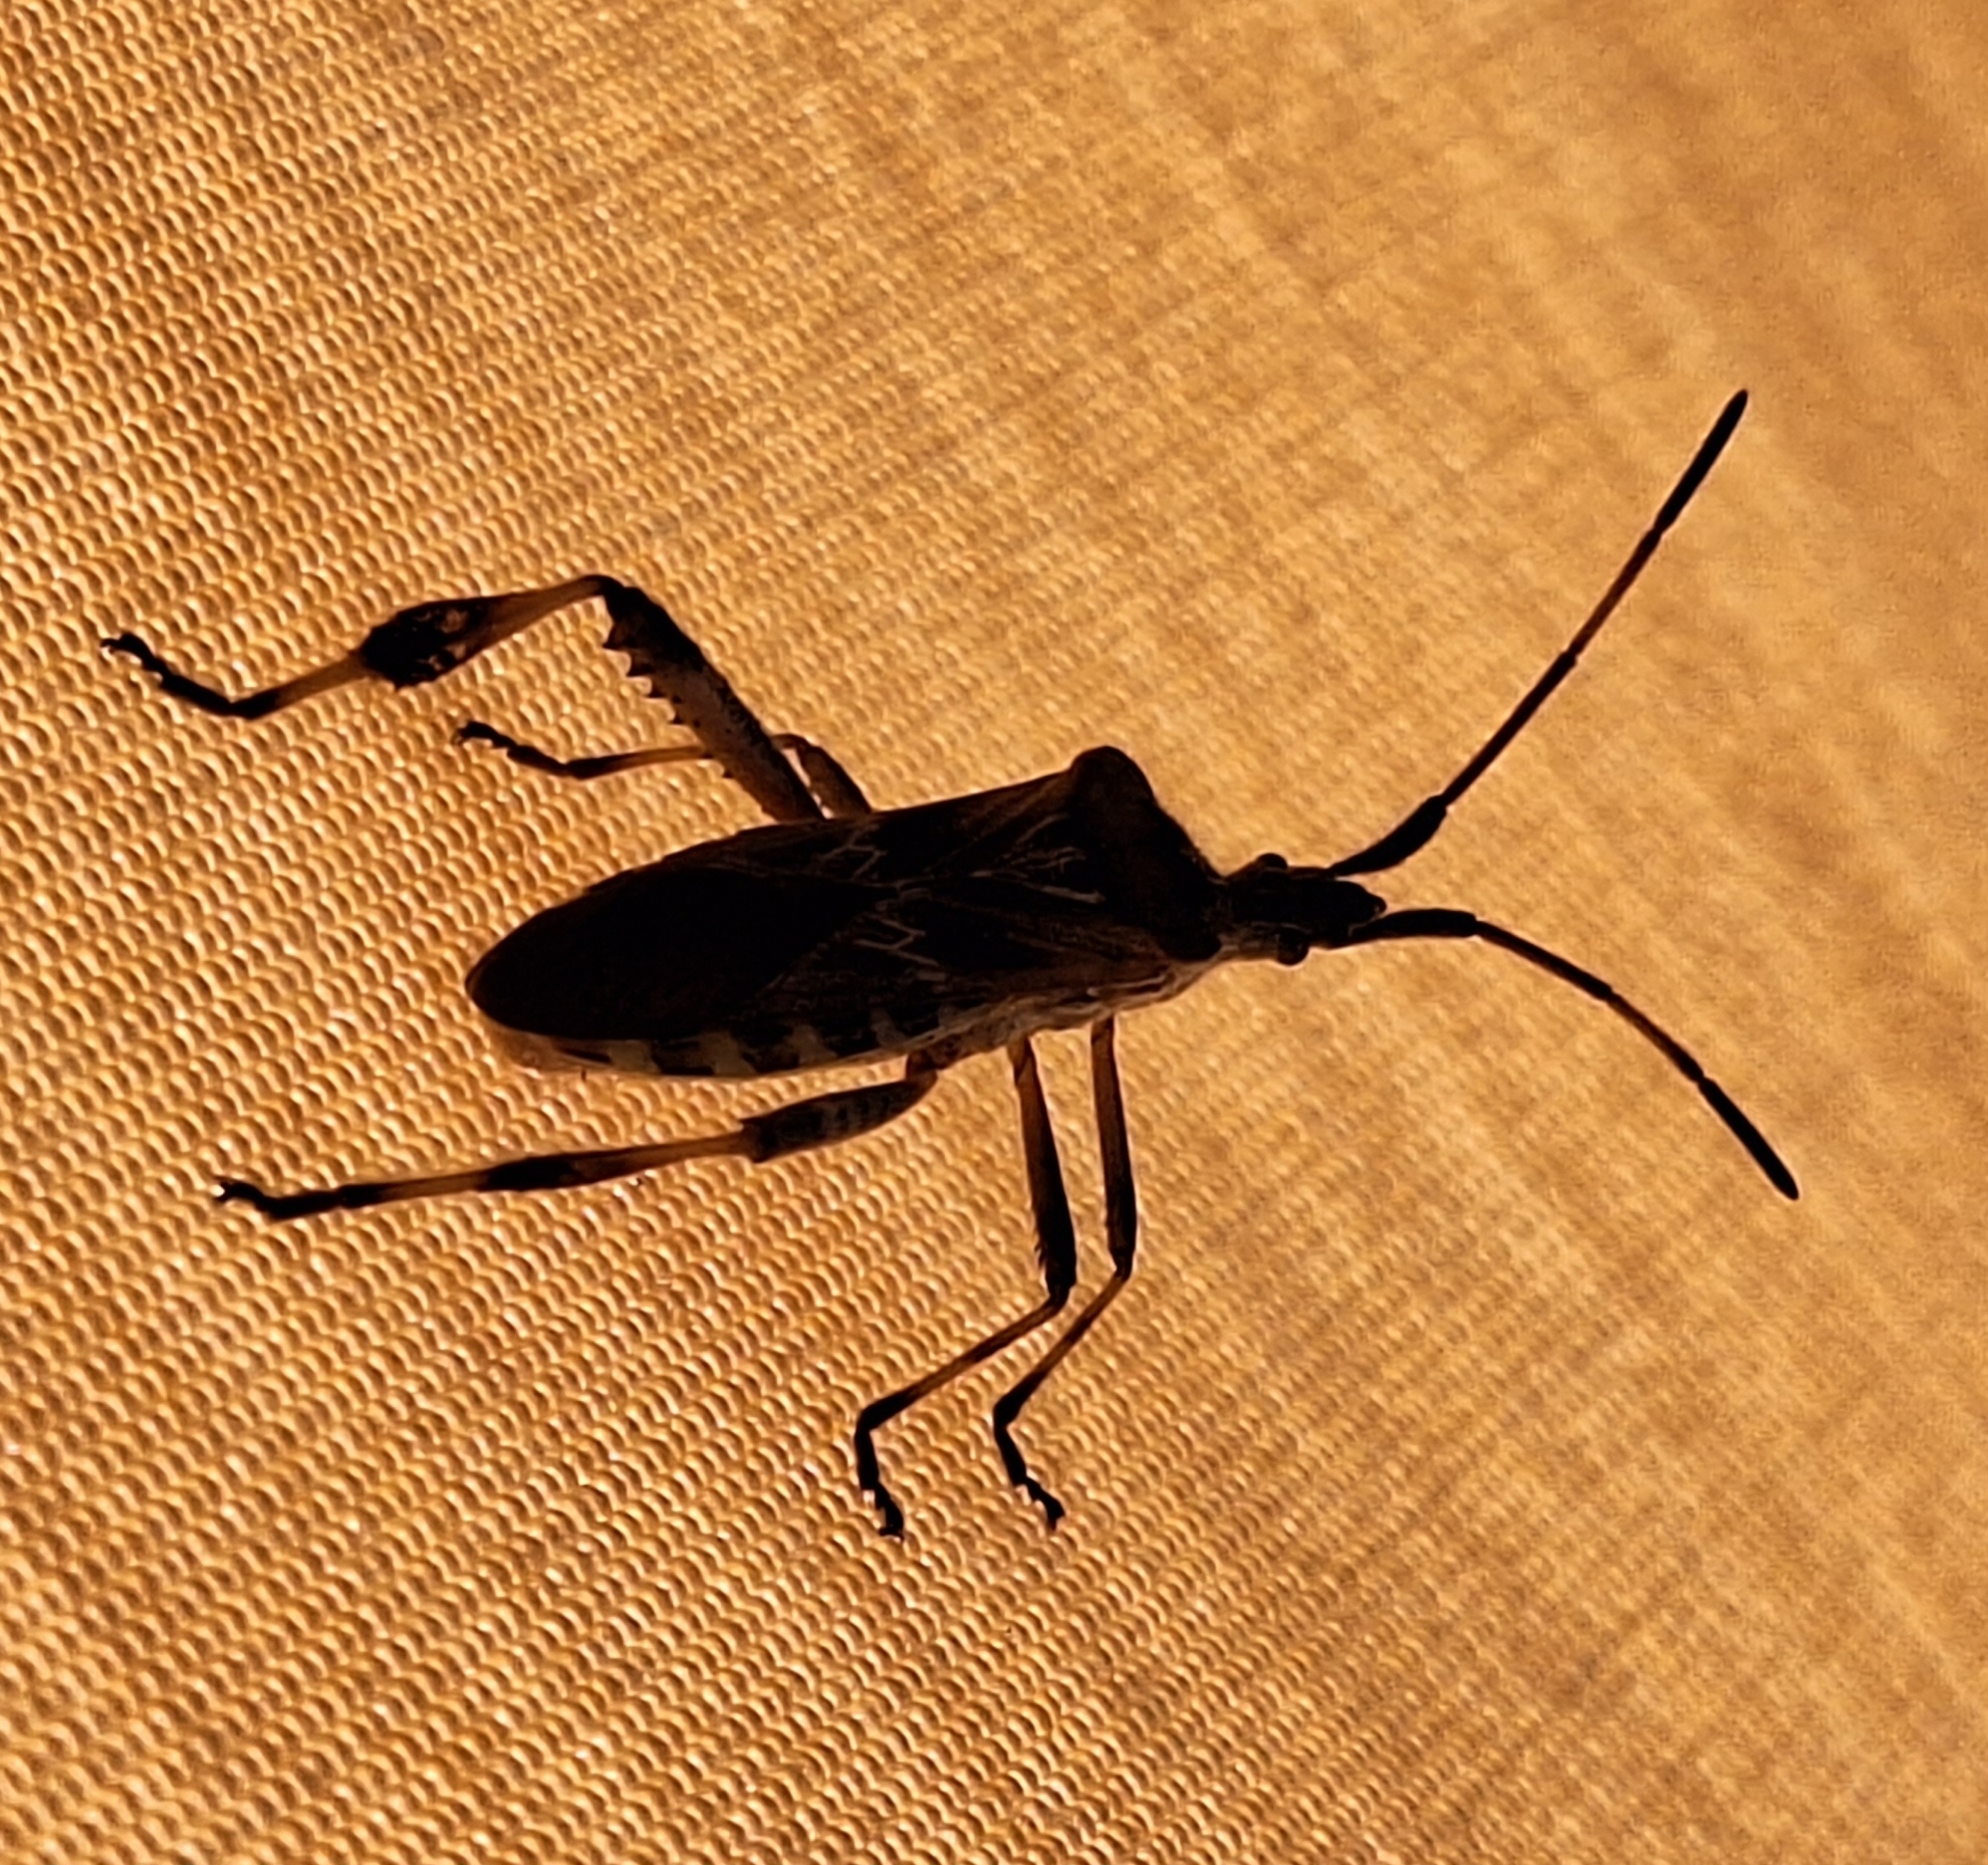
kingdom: Animalia
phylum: Arthropoda
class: Insecta
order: Hemiptera
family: Coreidae
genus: Leptoglossus
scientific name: Leptoglossus occidentalis
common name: Western conifer-seed bug
